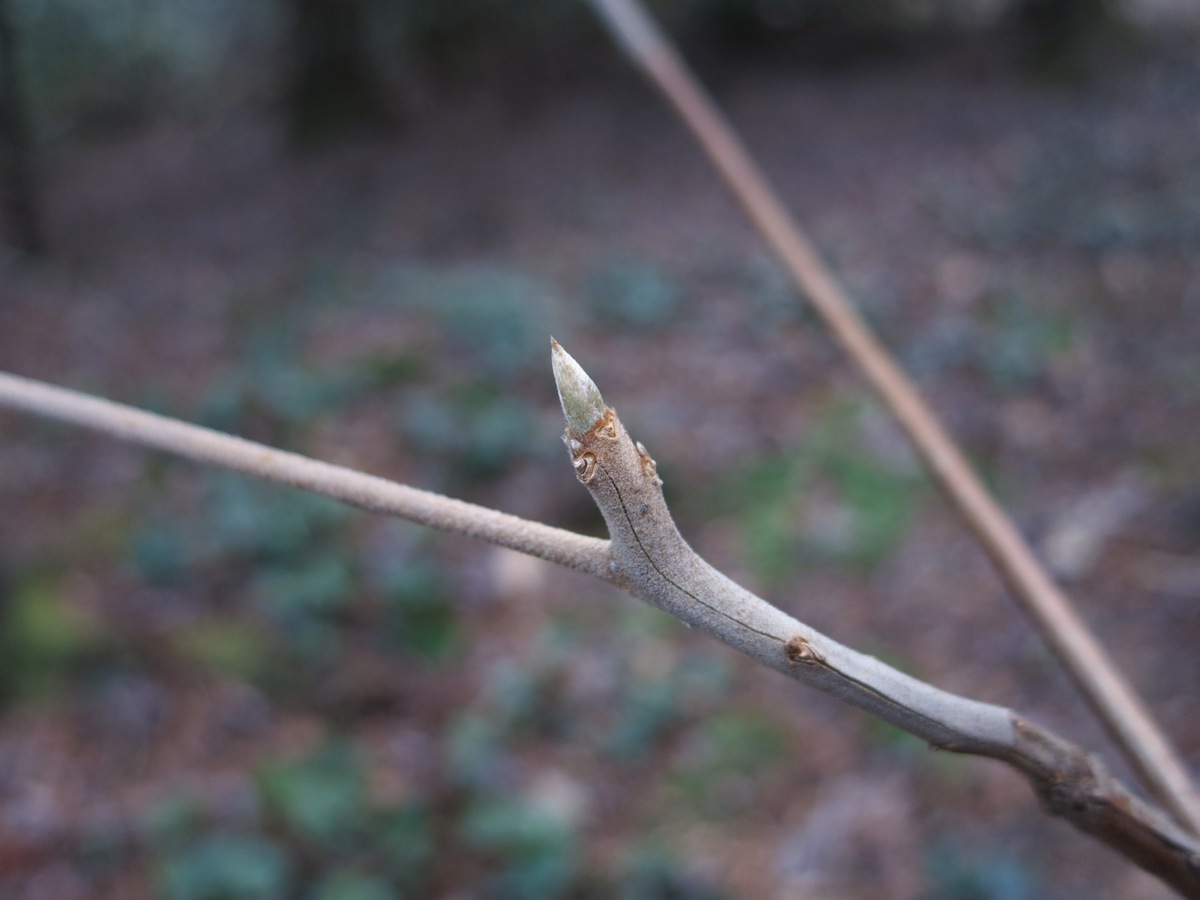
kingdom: Plantae
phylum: Tracheophyta
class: Magnoliopsida
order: Ericales
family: Clethraceae
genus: Clethra
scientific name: Clethra acuminata
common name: Mountain sweet pepperbush
